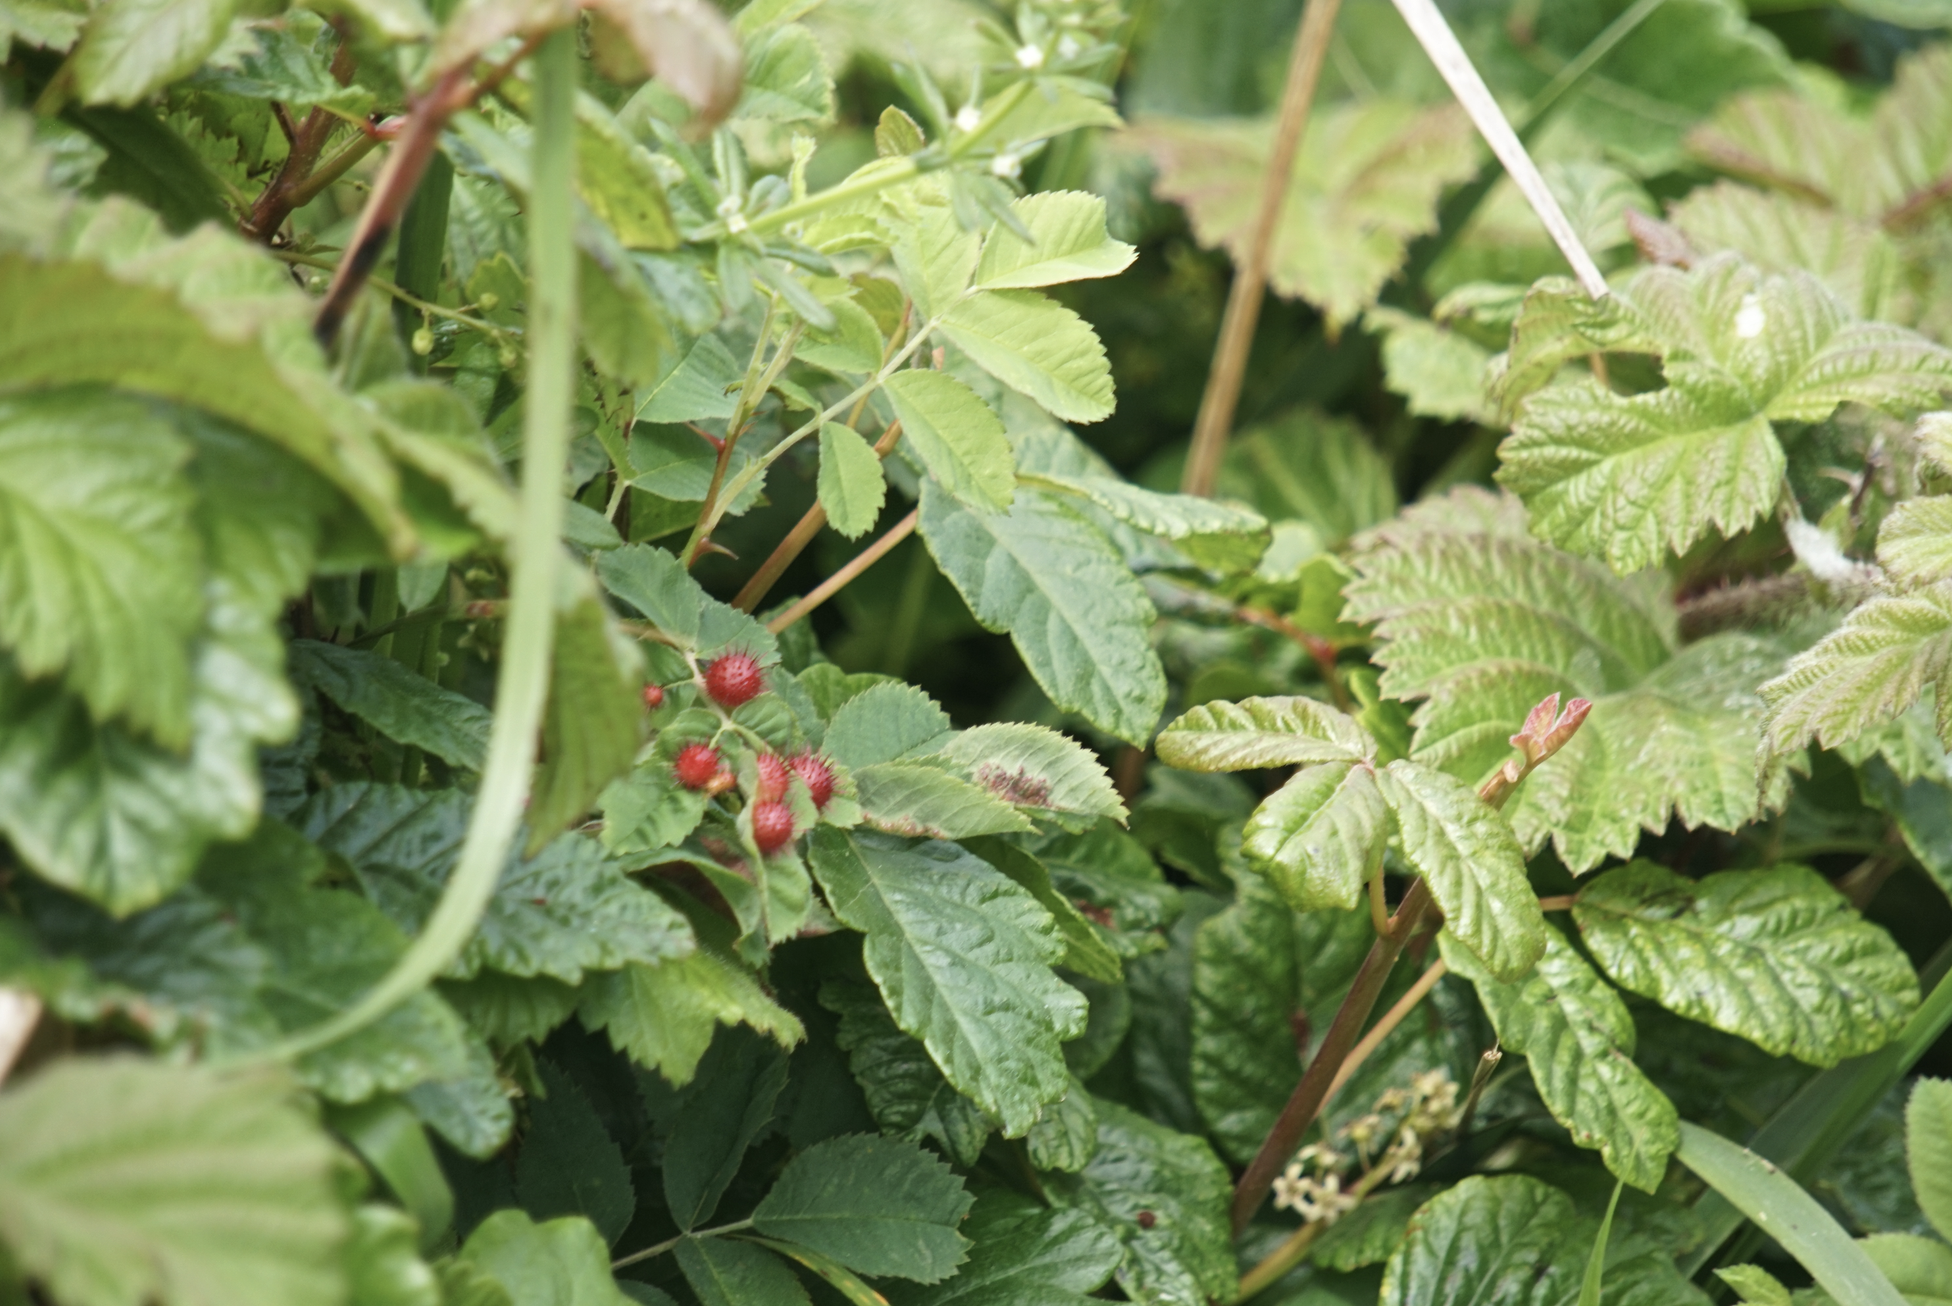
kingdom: Plantae
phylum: Tracheophyta
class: Magnoliopsida
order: Sapindales
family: Anacardiaceae
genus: Toxicodendron
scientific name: Toxicodendron diversilobum
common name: Pacific poison-oak
